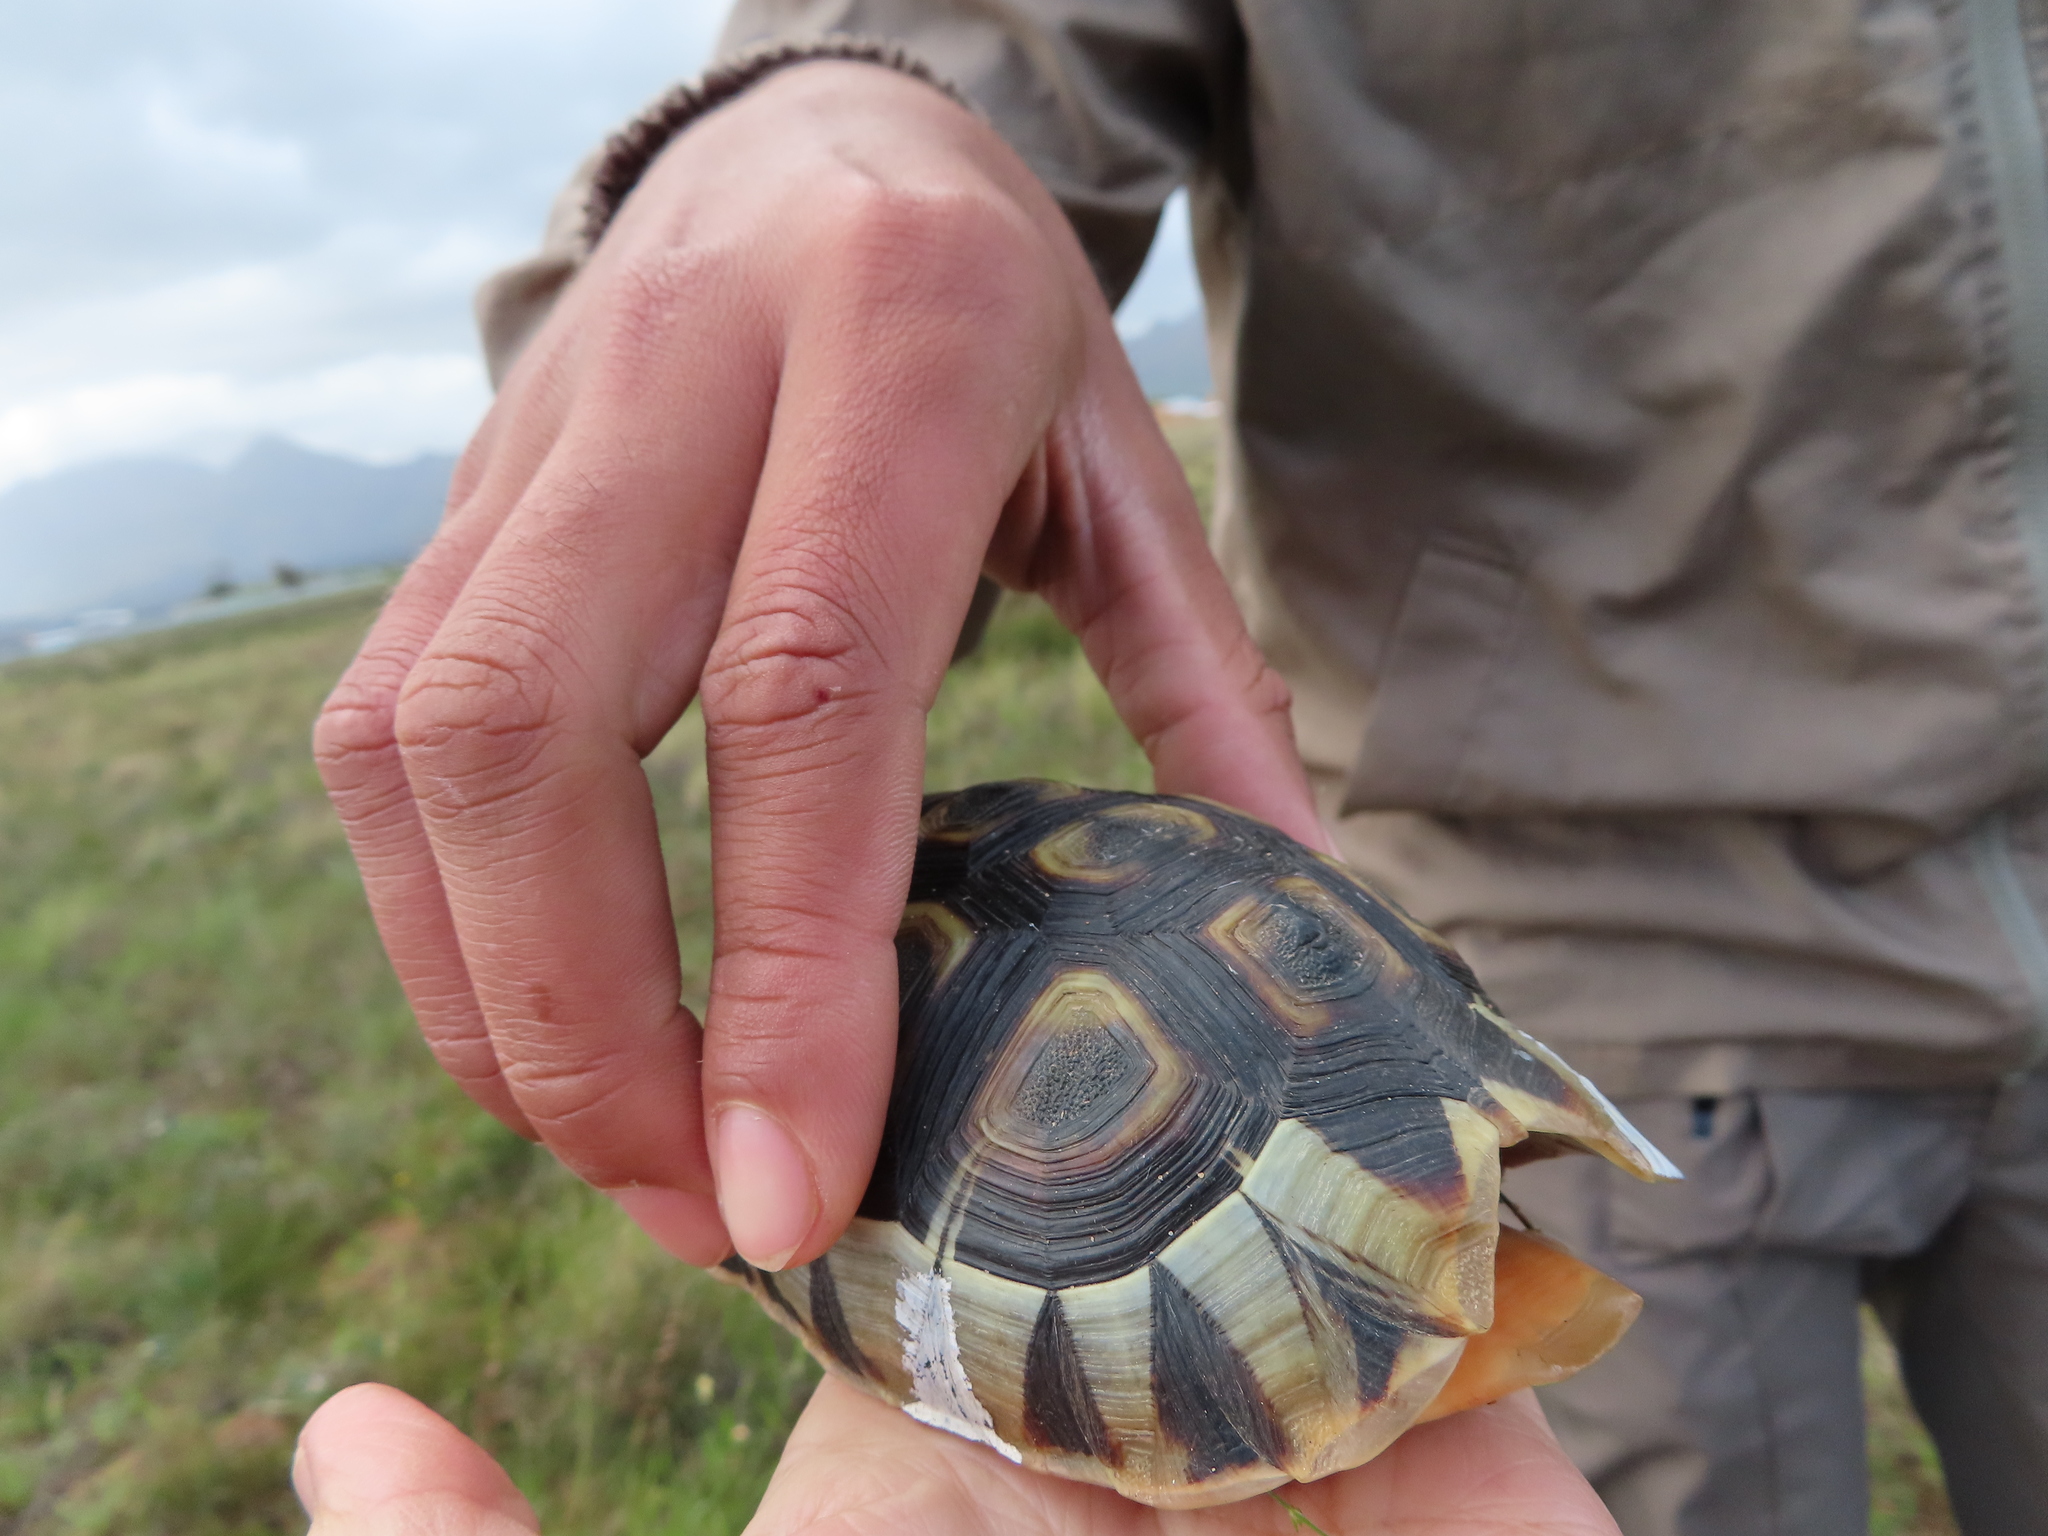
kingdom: Animalia
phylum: Chordata
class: Testudines
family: Testudinidae
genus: Chersina
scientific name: Chersina angulata
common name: South african bowsprit tortoise
